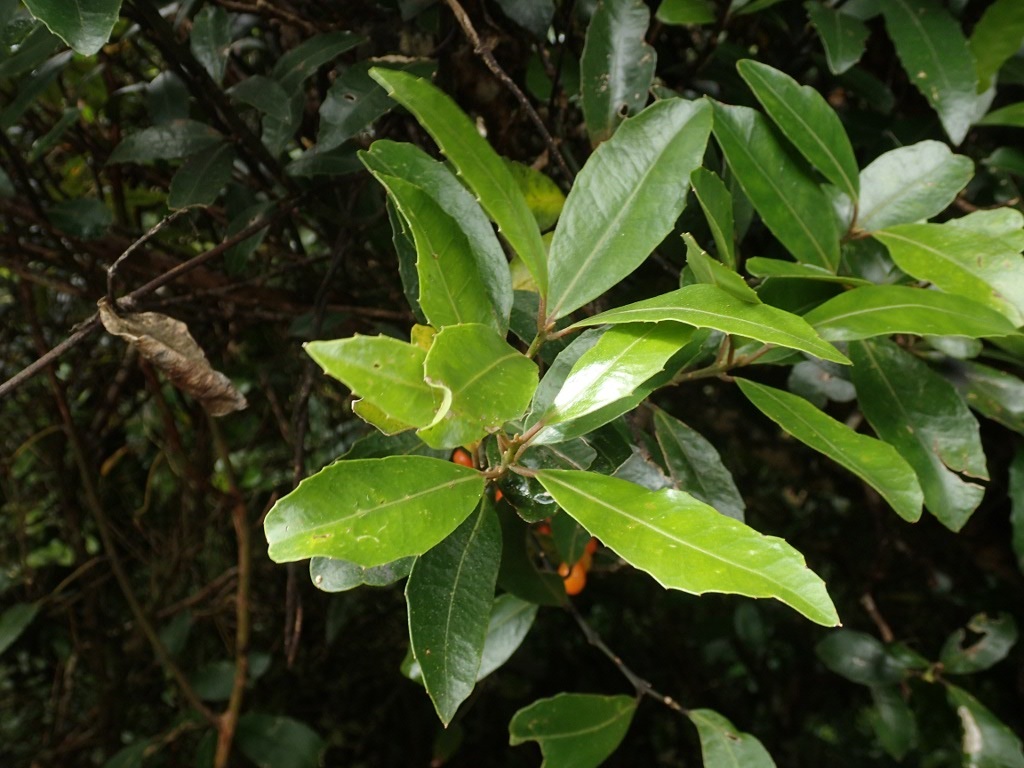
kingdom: Plantae
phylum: Tracheophyta
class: Magnoliopsida
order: Laurales
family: Monimiaceae
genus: Hedycarya
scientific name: Hedycarya arborea
